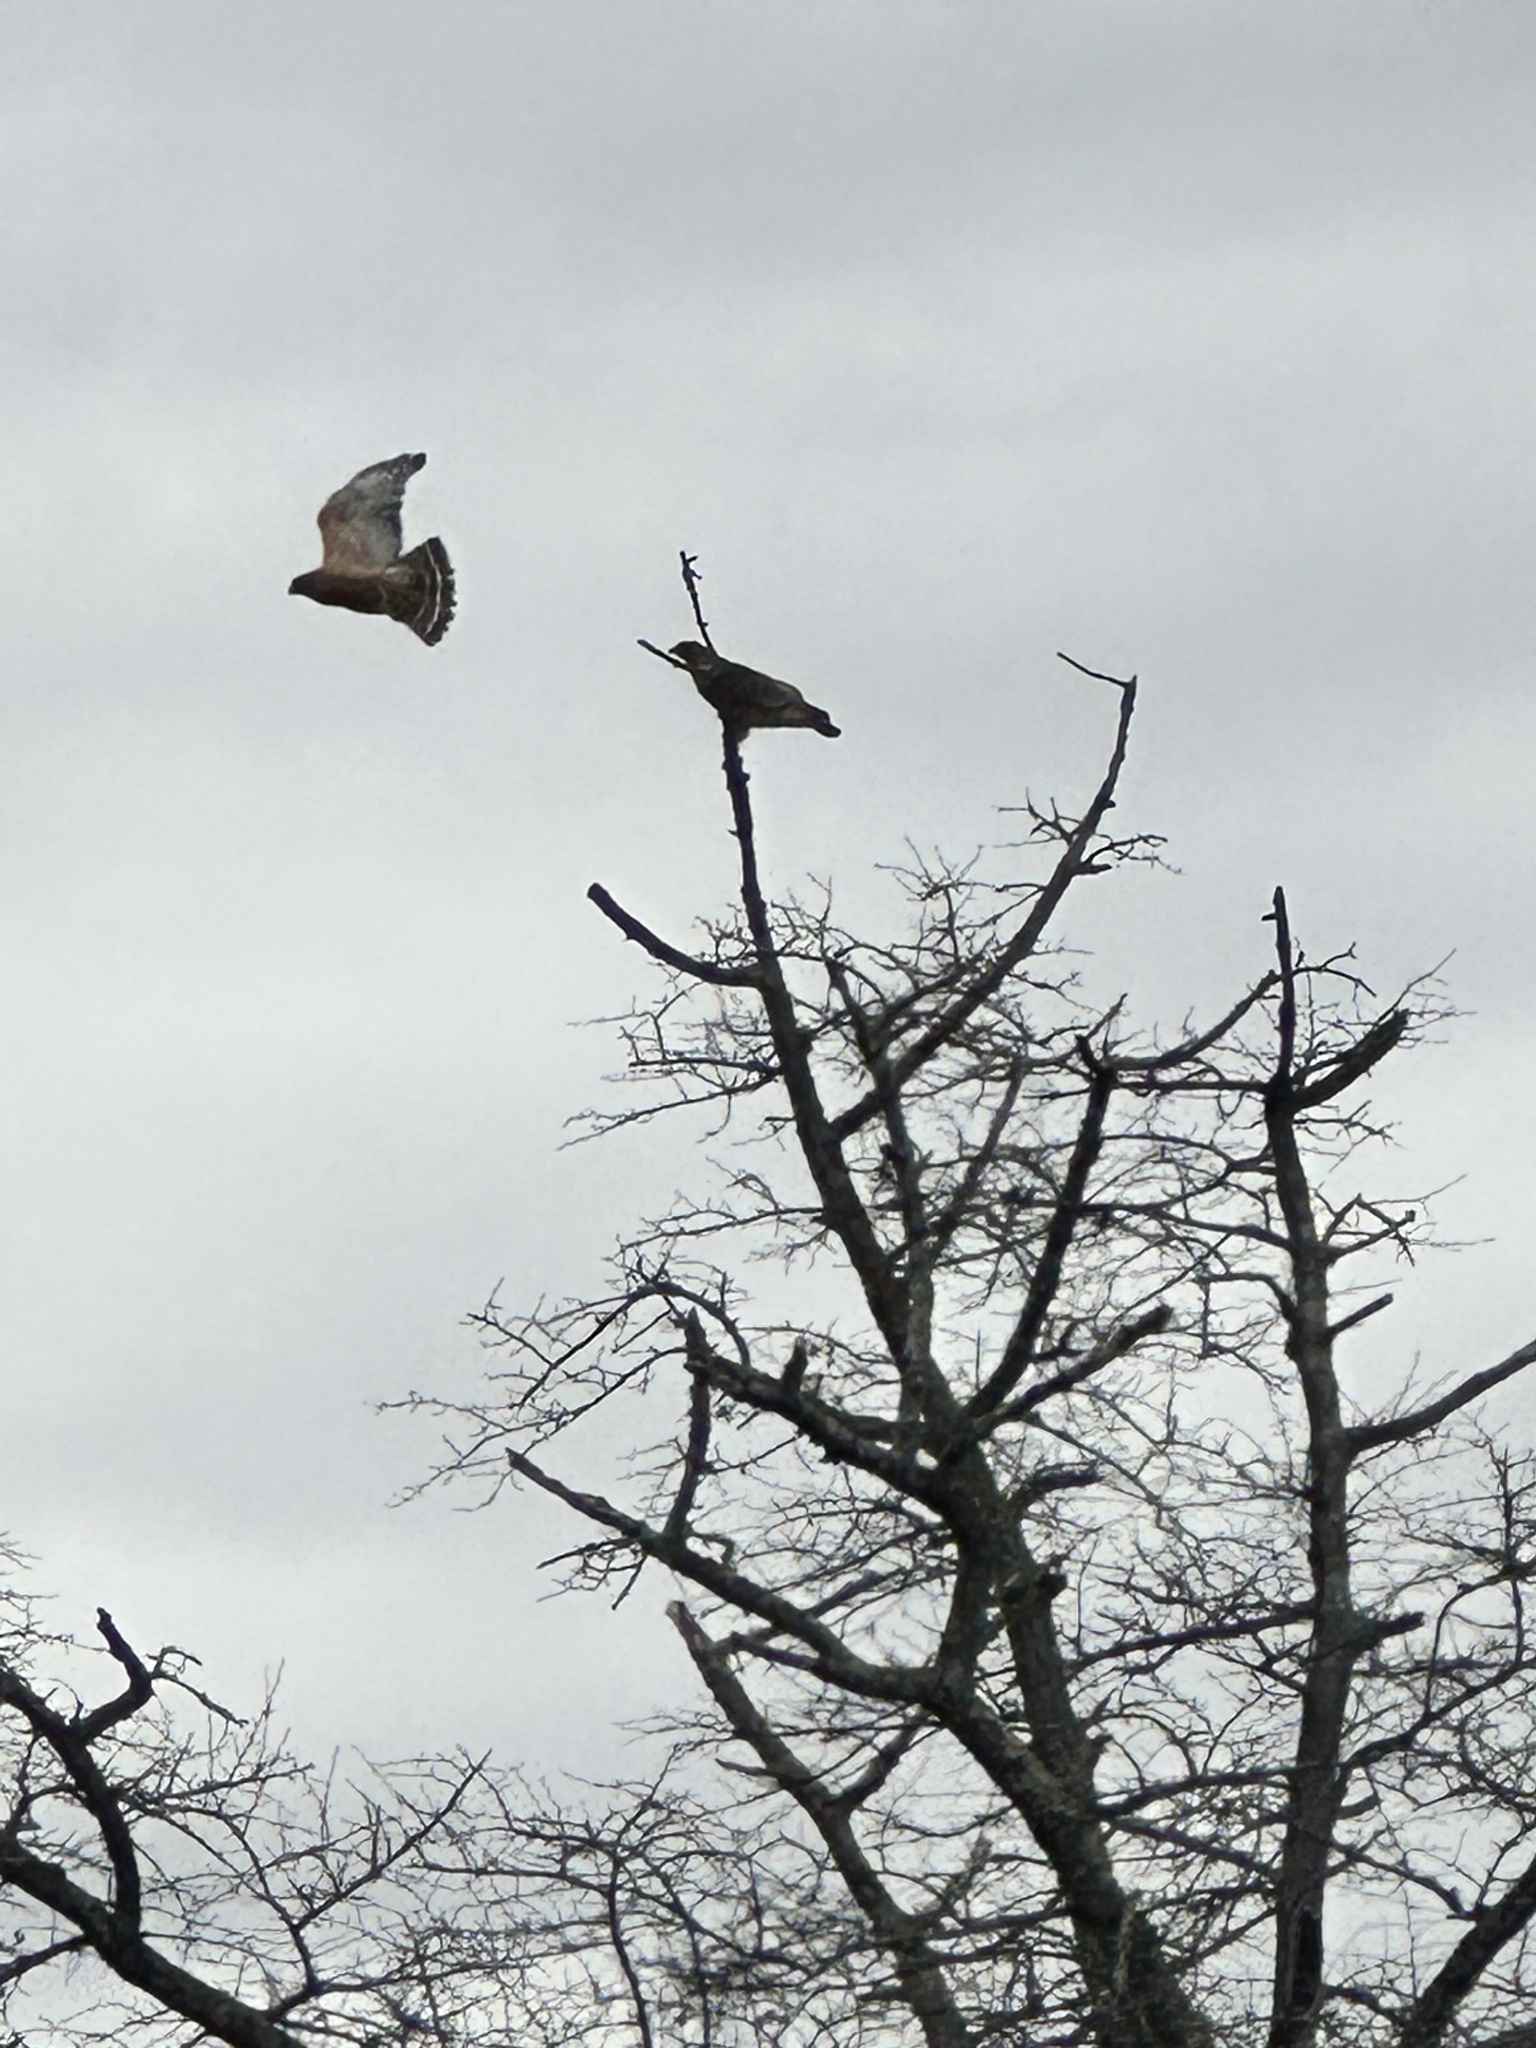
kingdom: Animalia
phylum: Chordata
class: Aves
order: Accipitriformes
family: Accipitridae
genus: Buteo
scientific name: Buteo lineatus
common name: Red-shouldered hawk
